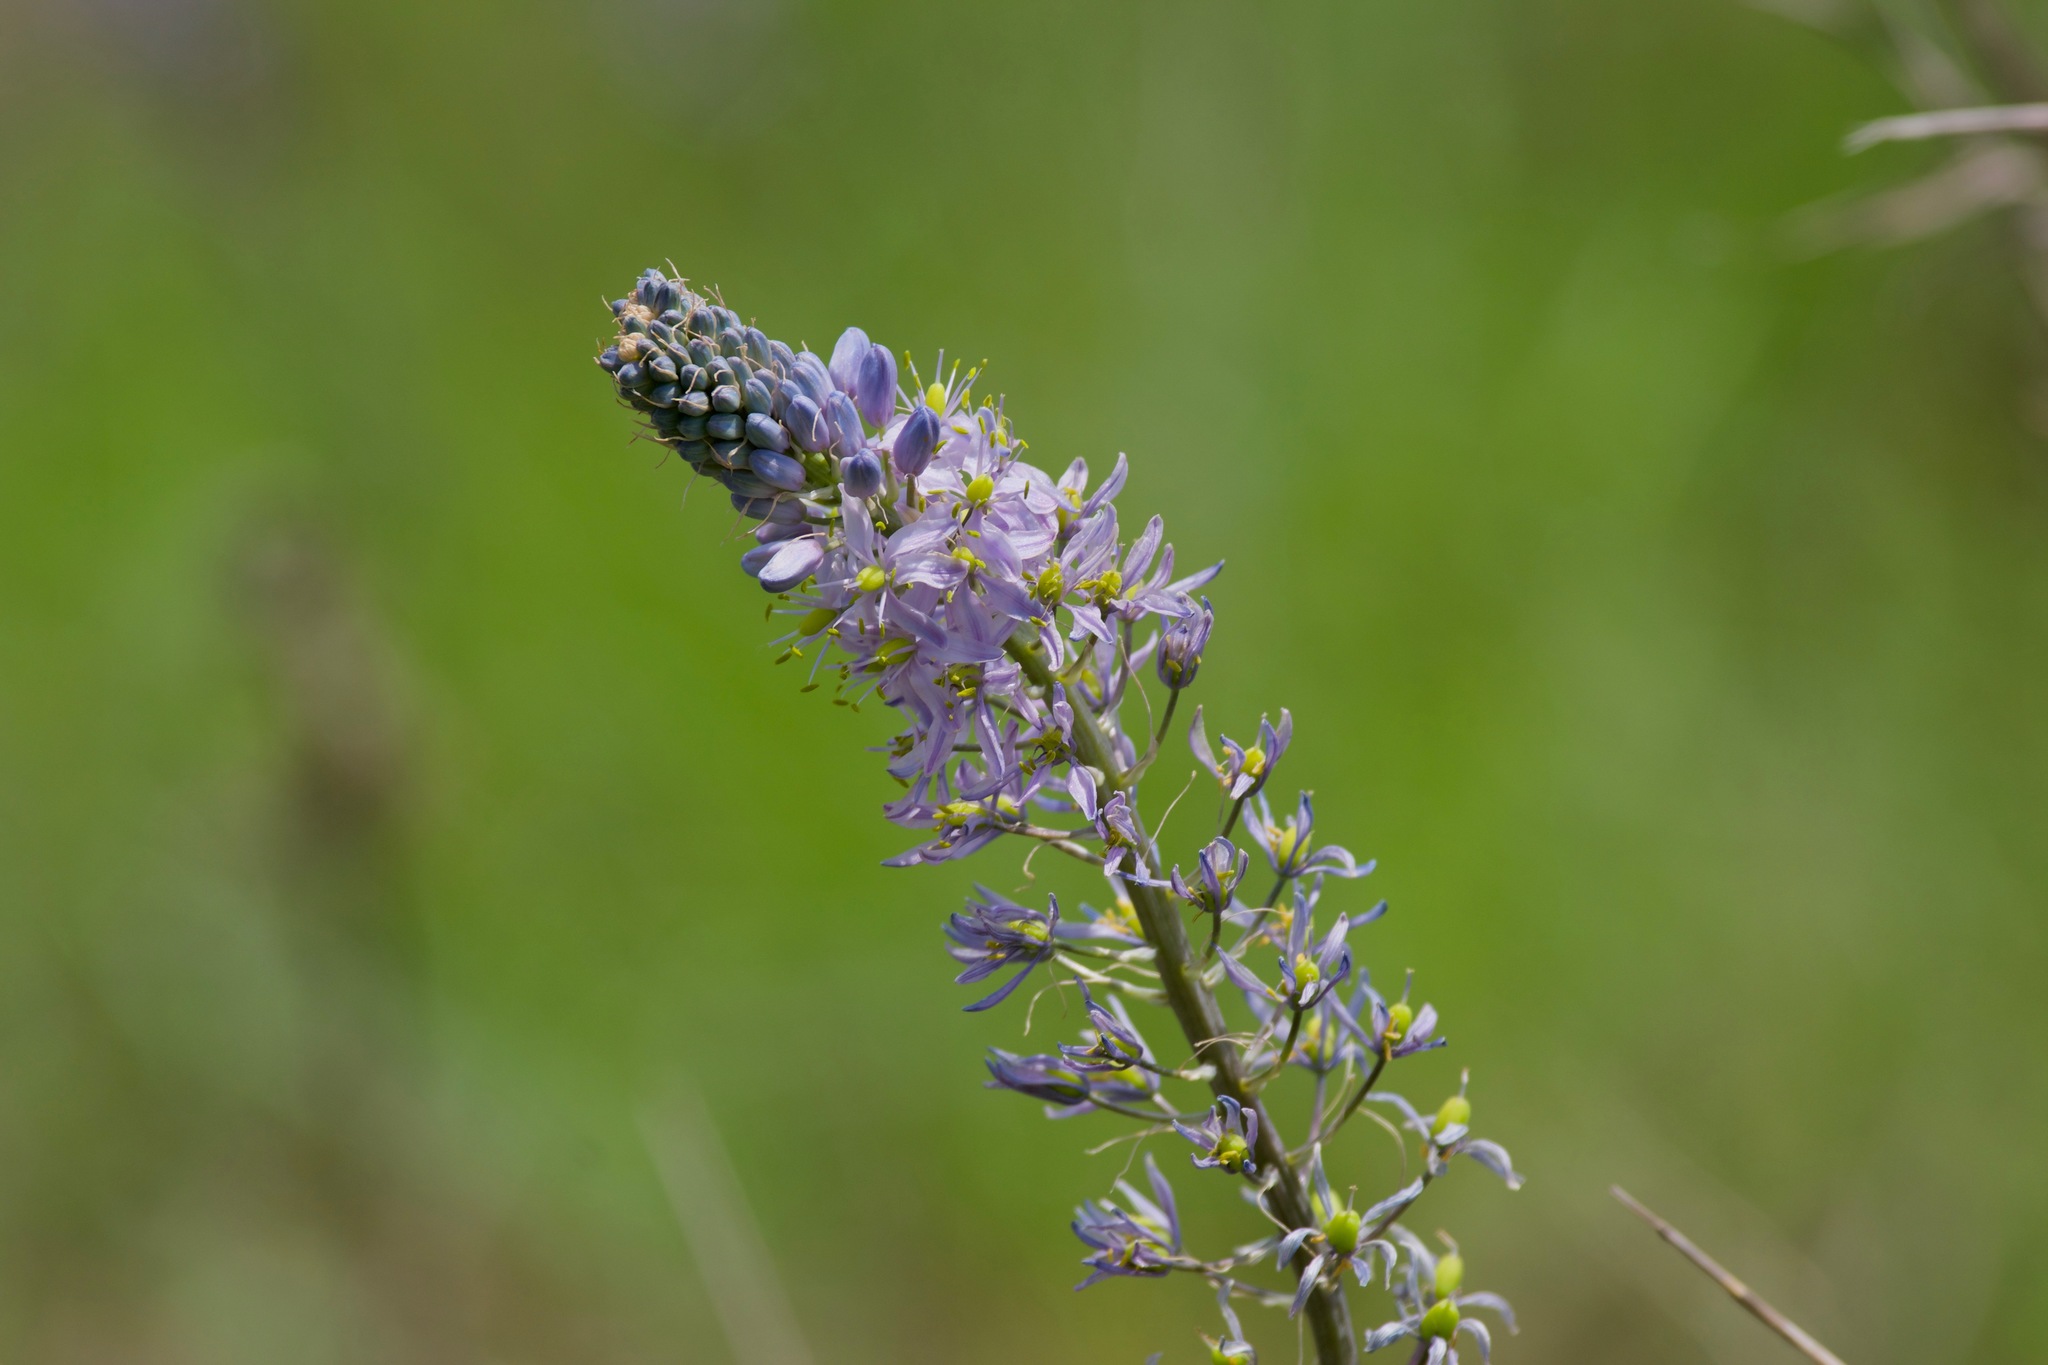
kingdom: Plantae
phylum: Tracheophyta
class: Liliopsida
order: Asparagales
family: Asparagaceae
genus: Camassia
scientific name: Camassia scilloides
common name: Wild hyacinth
